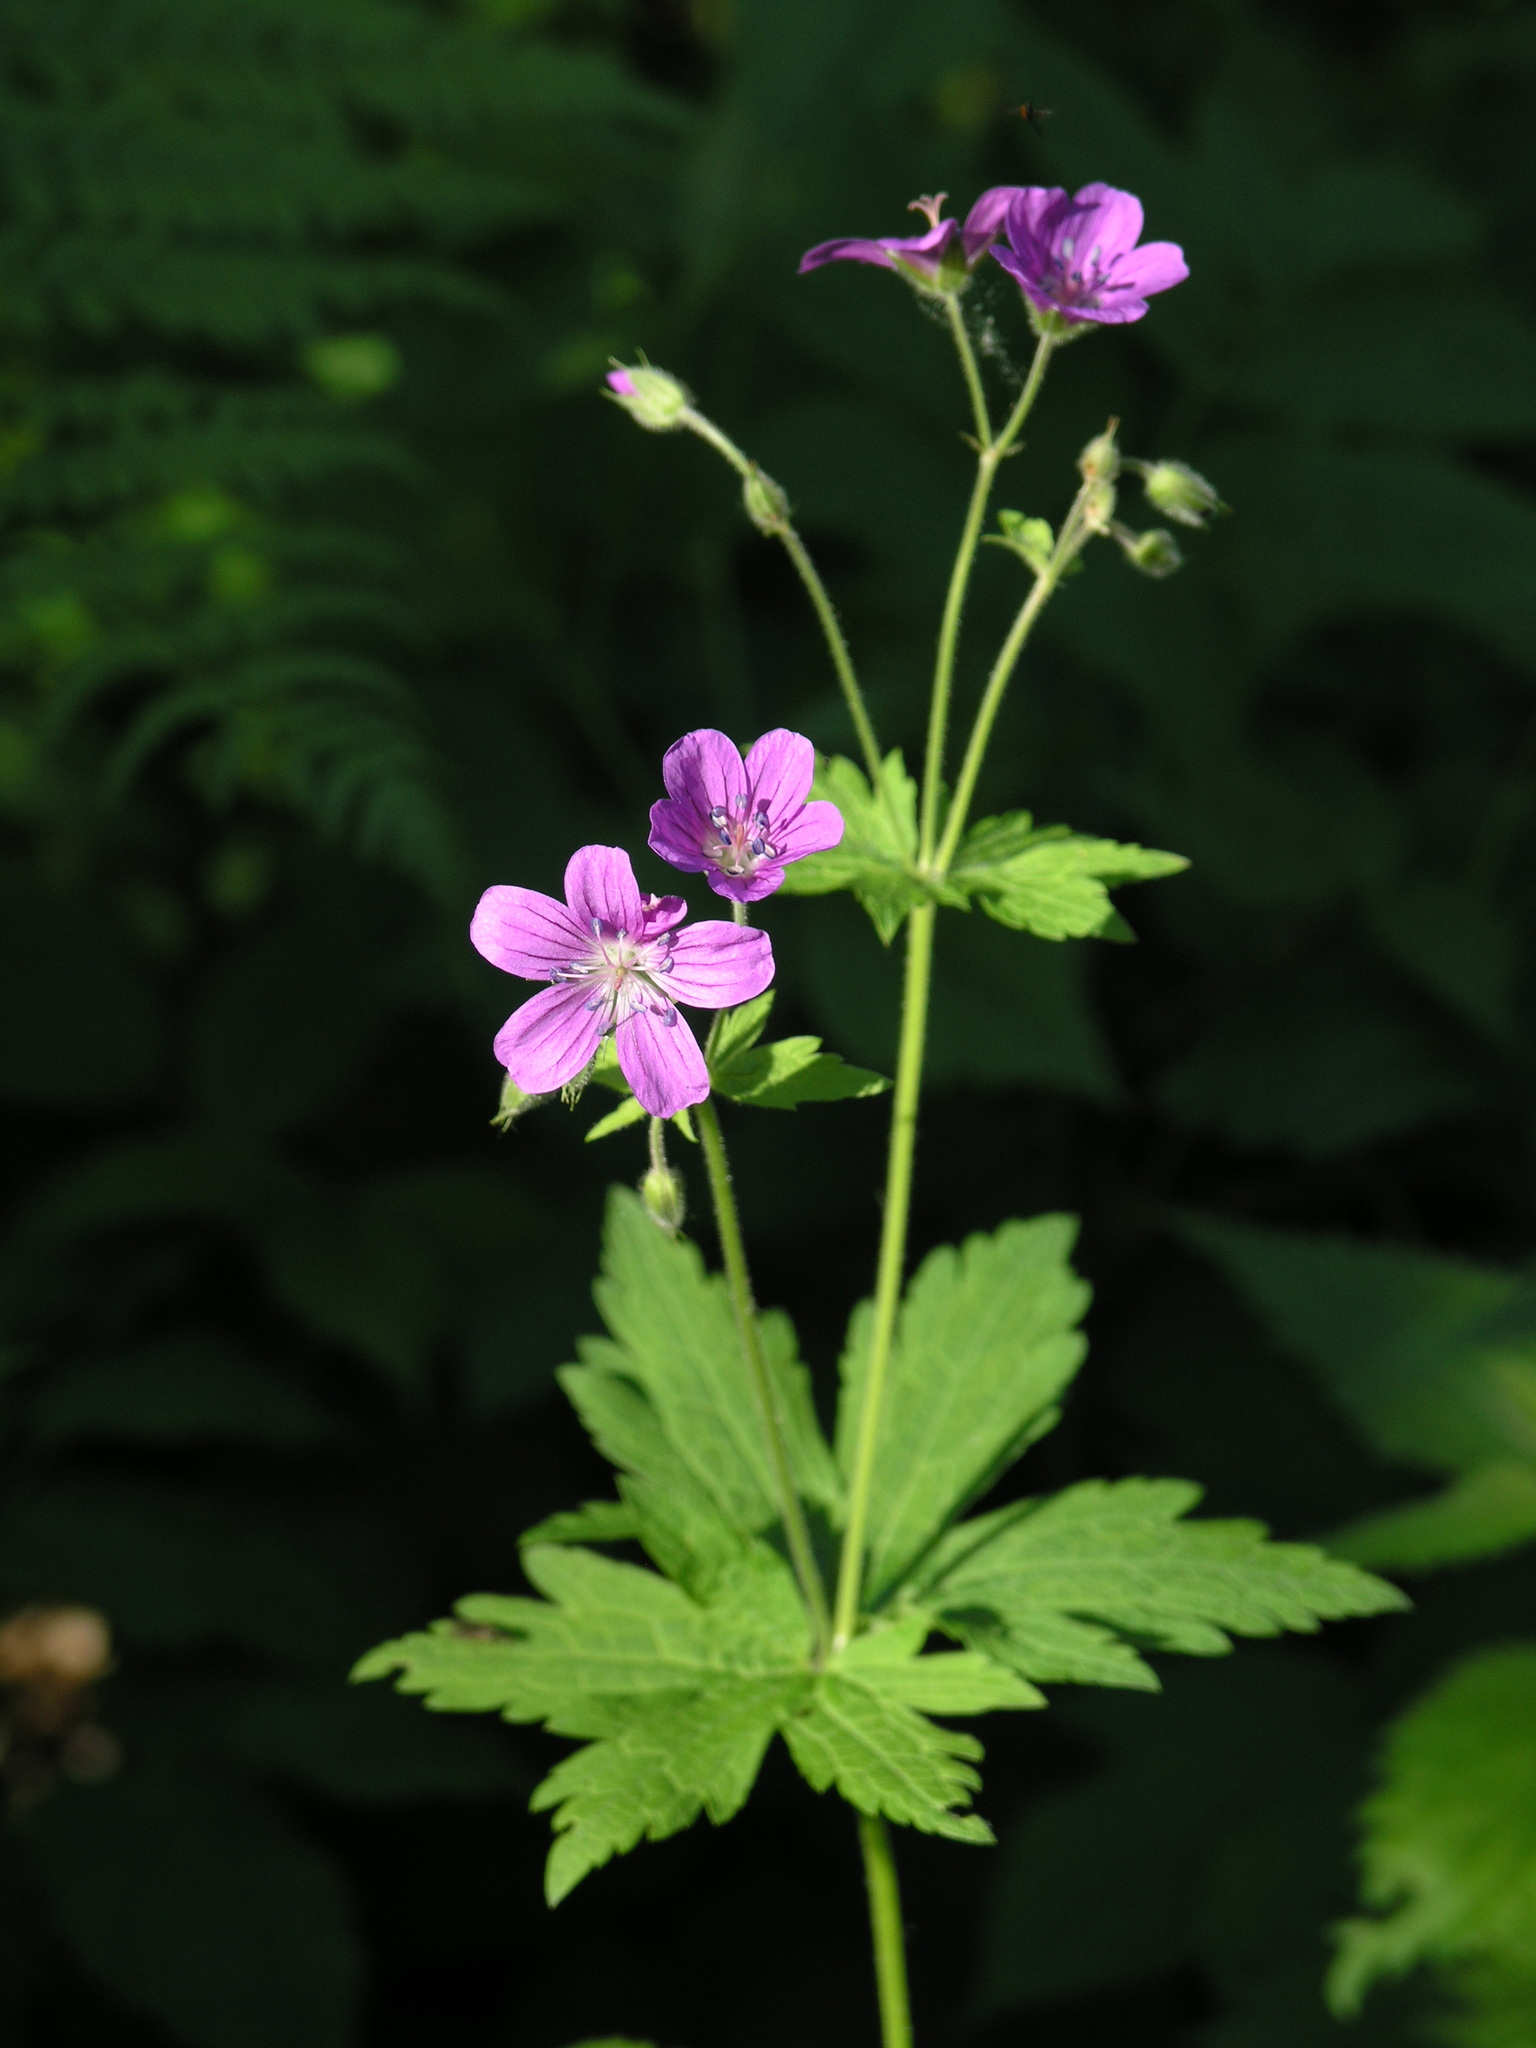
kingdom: Plantae
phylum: Tracheophyta
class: Magnoliopsida
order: Geraniales
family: Geraniaceae
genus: Geranium
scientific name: Geranium sylvaticum
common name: Wood crane's-bill
